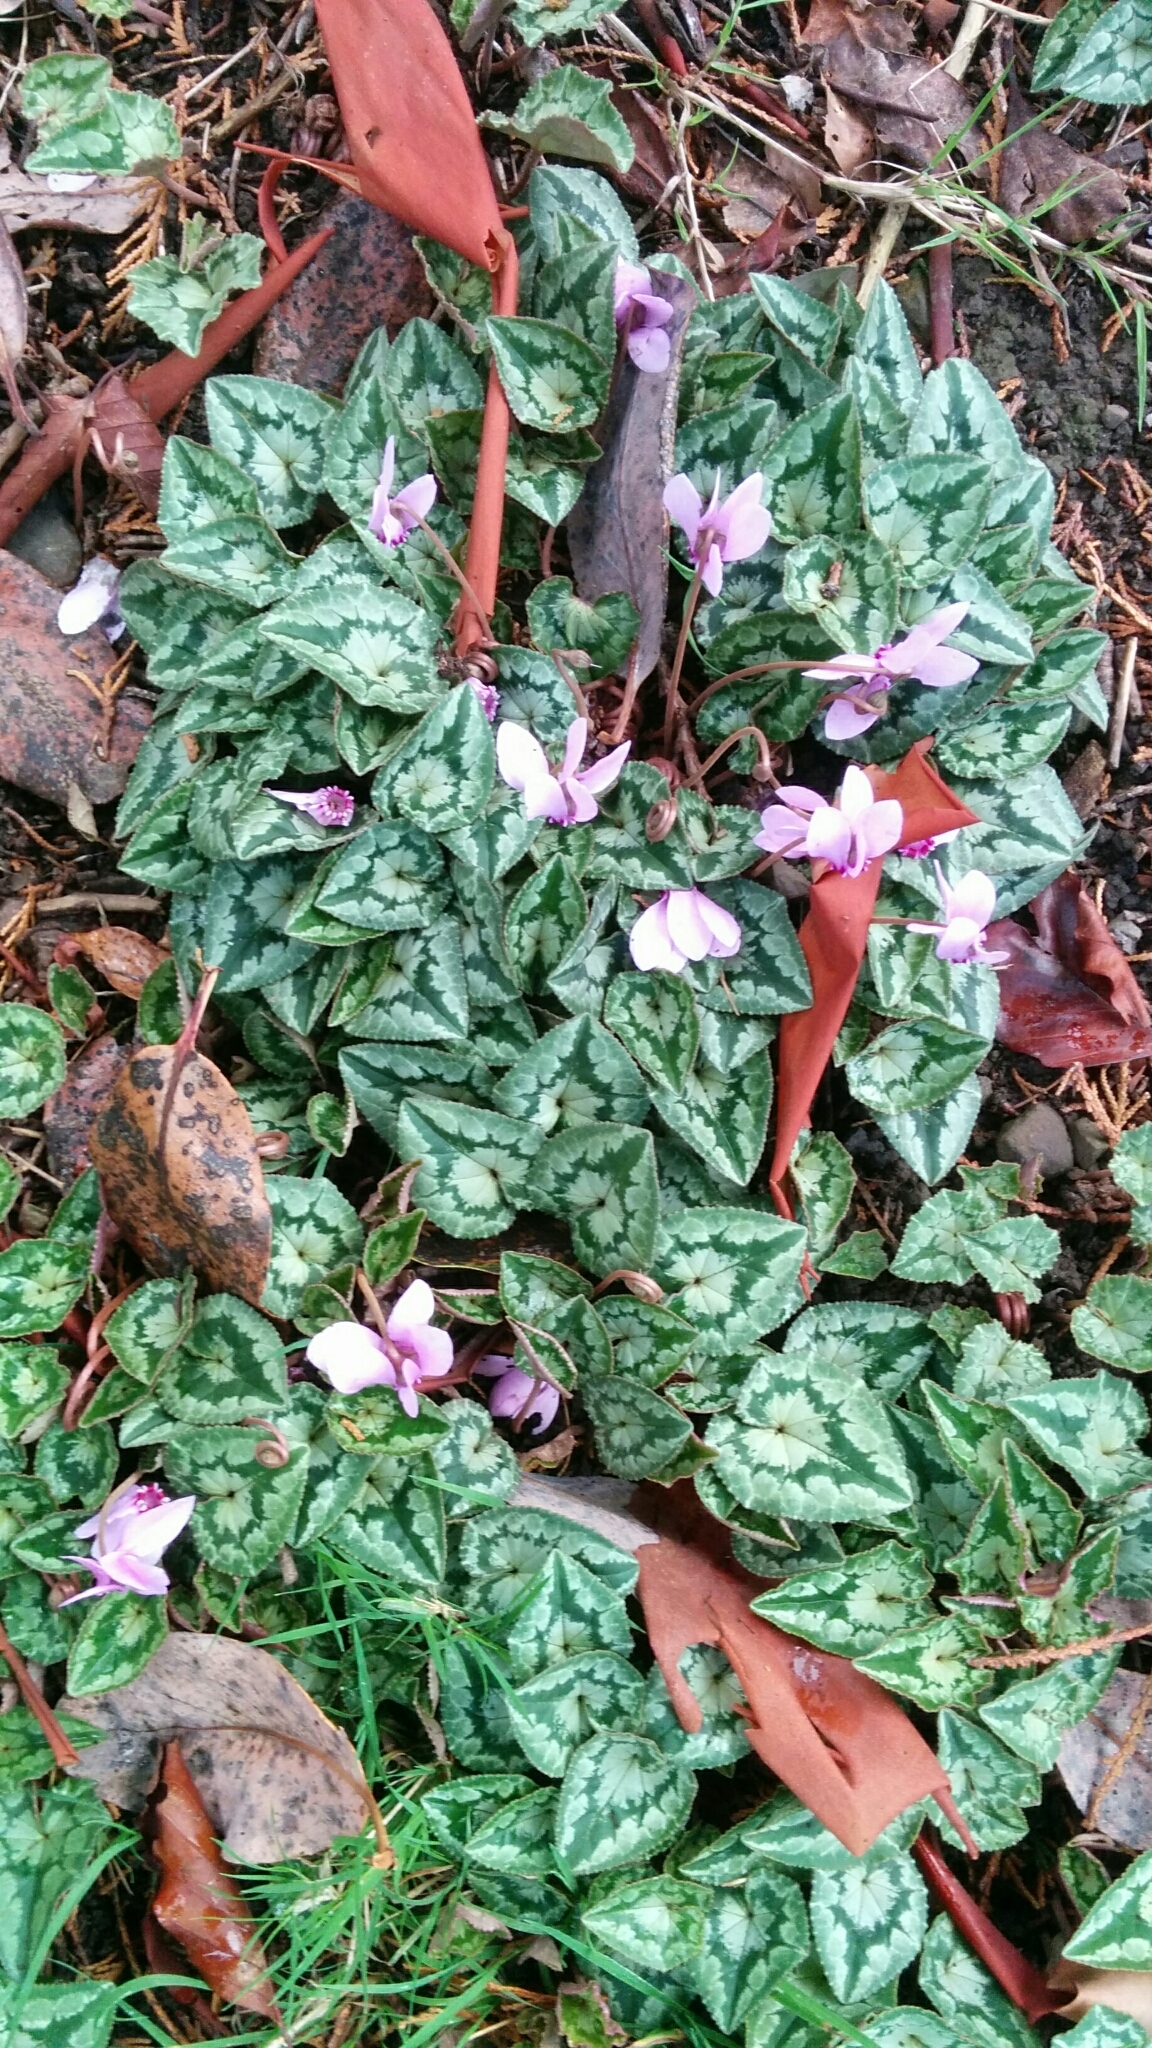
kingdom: Plantae
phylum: Tracheophyta
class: Magnoliopsida
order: Ericales
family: Primulaceae
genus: Cyclamen
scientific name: Cyclamen hederifolium
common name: Sowbread
